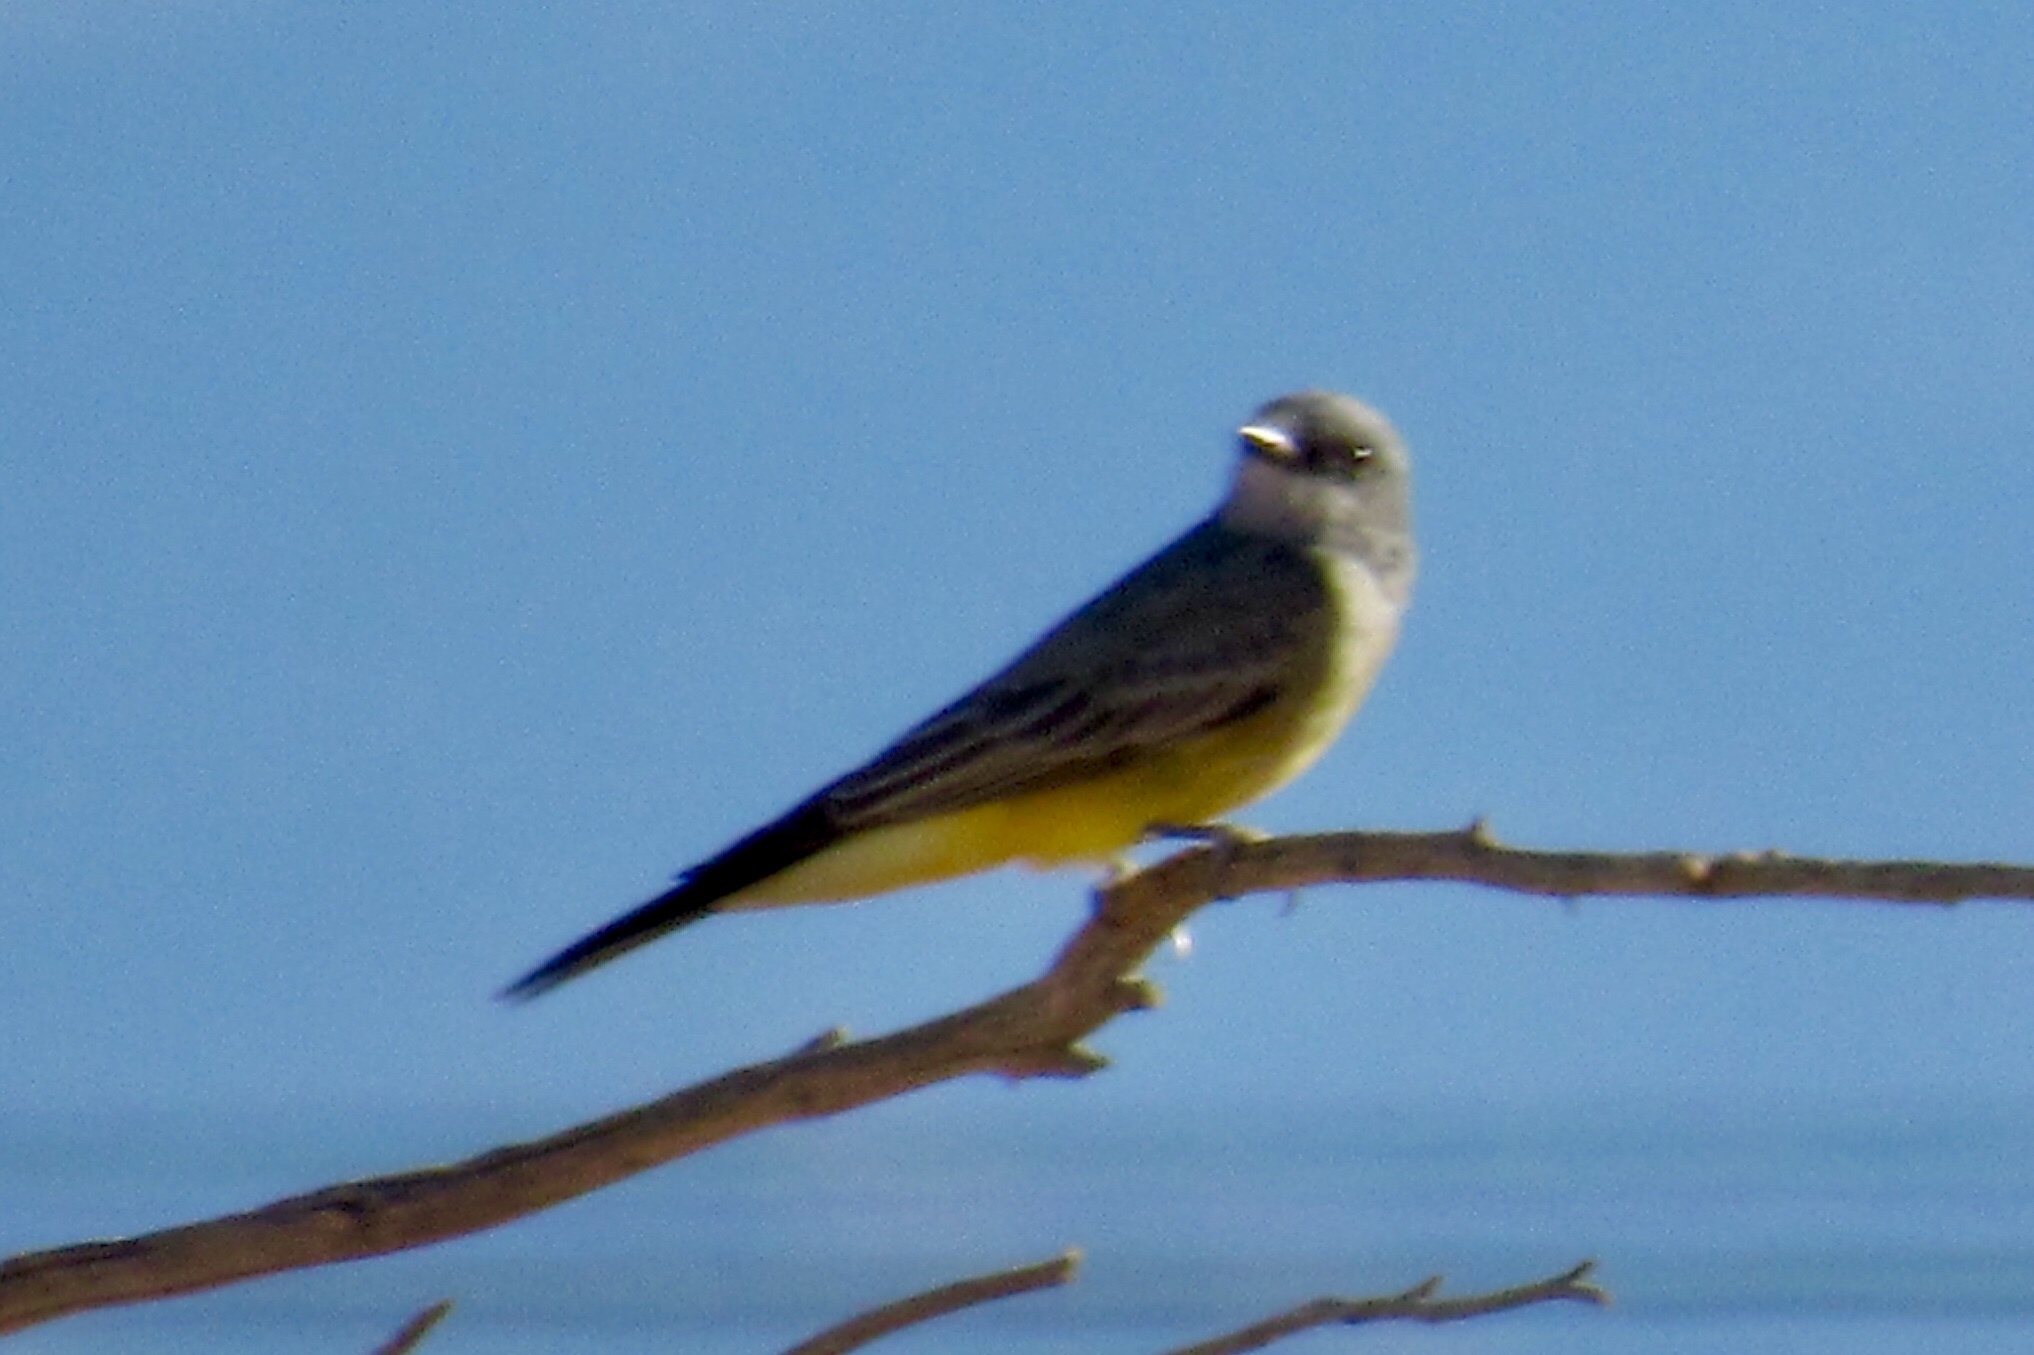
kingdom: Animalia
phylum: Chordata
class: Aves
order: Passeriformes
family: Tyrannidae
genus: Tyrannus
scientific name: Tyrannus vociferans
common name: Cassin's kingbird
